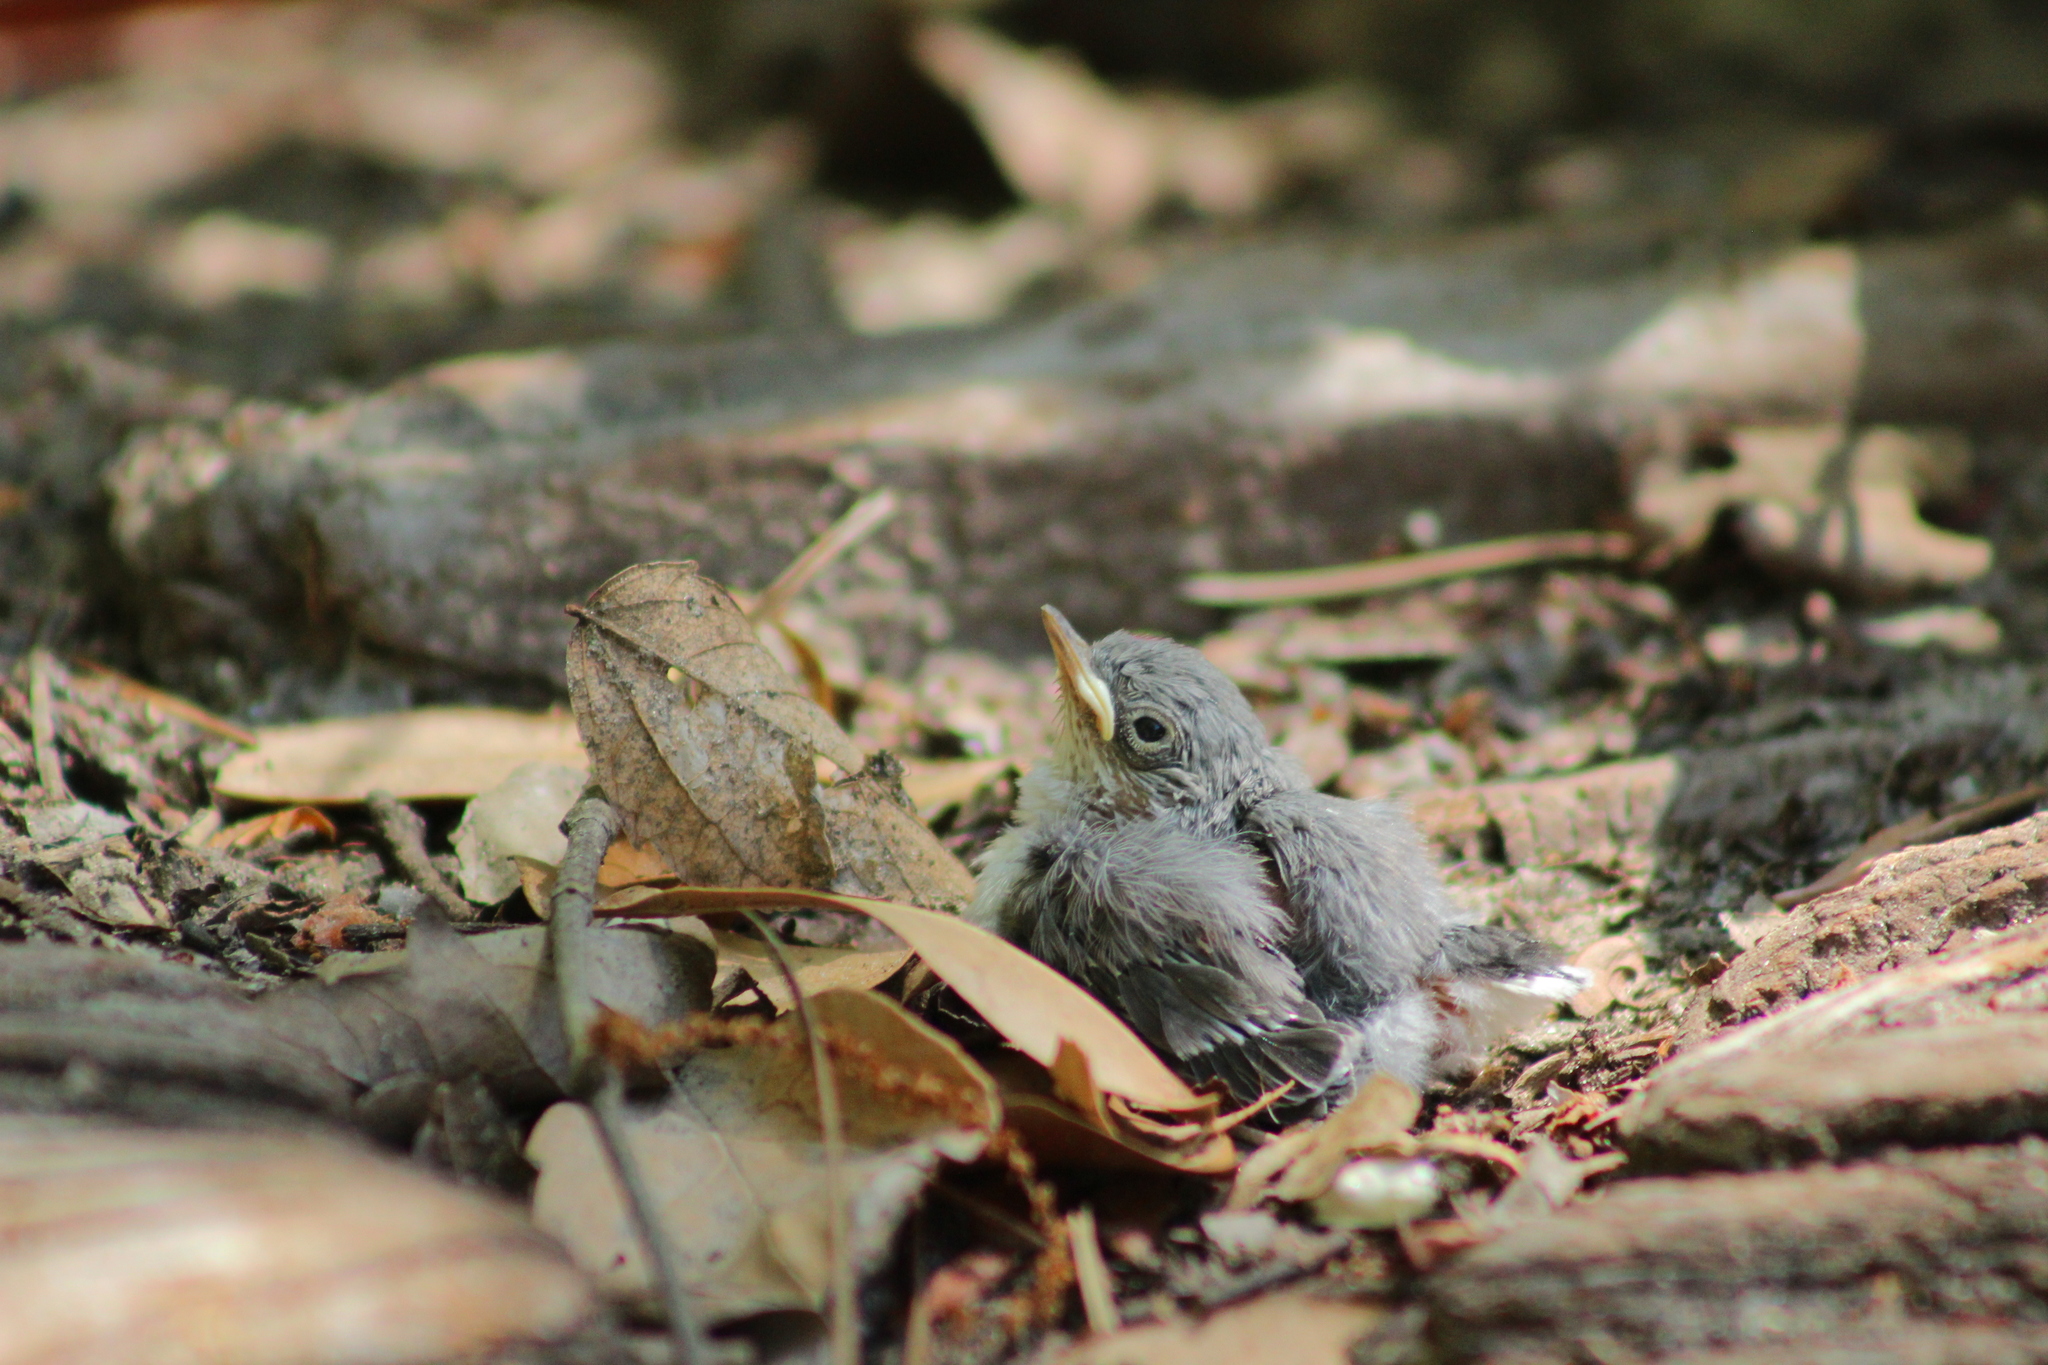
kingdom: Animalia
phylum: Chordata
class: Aves
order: Passeriformes
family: Polioptilidae
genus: Polioptila
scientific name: Polioptila caerulea
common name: Blue-gray gnatcatcher
